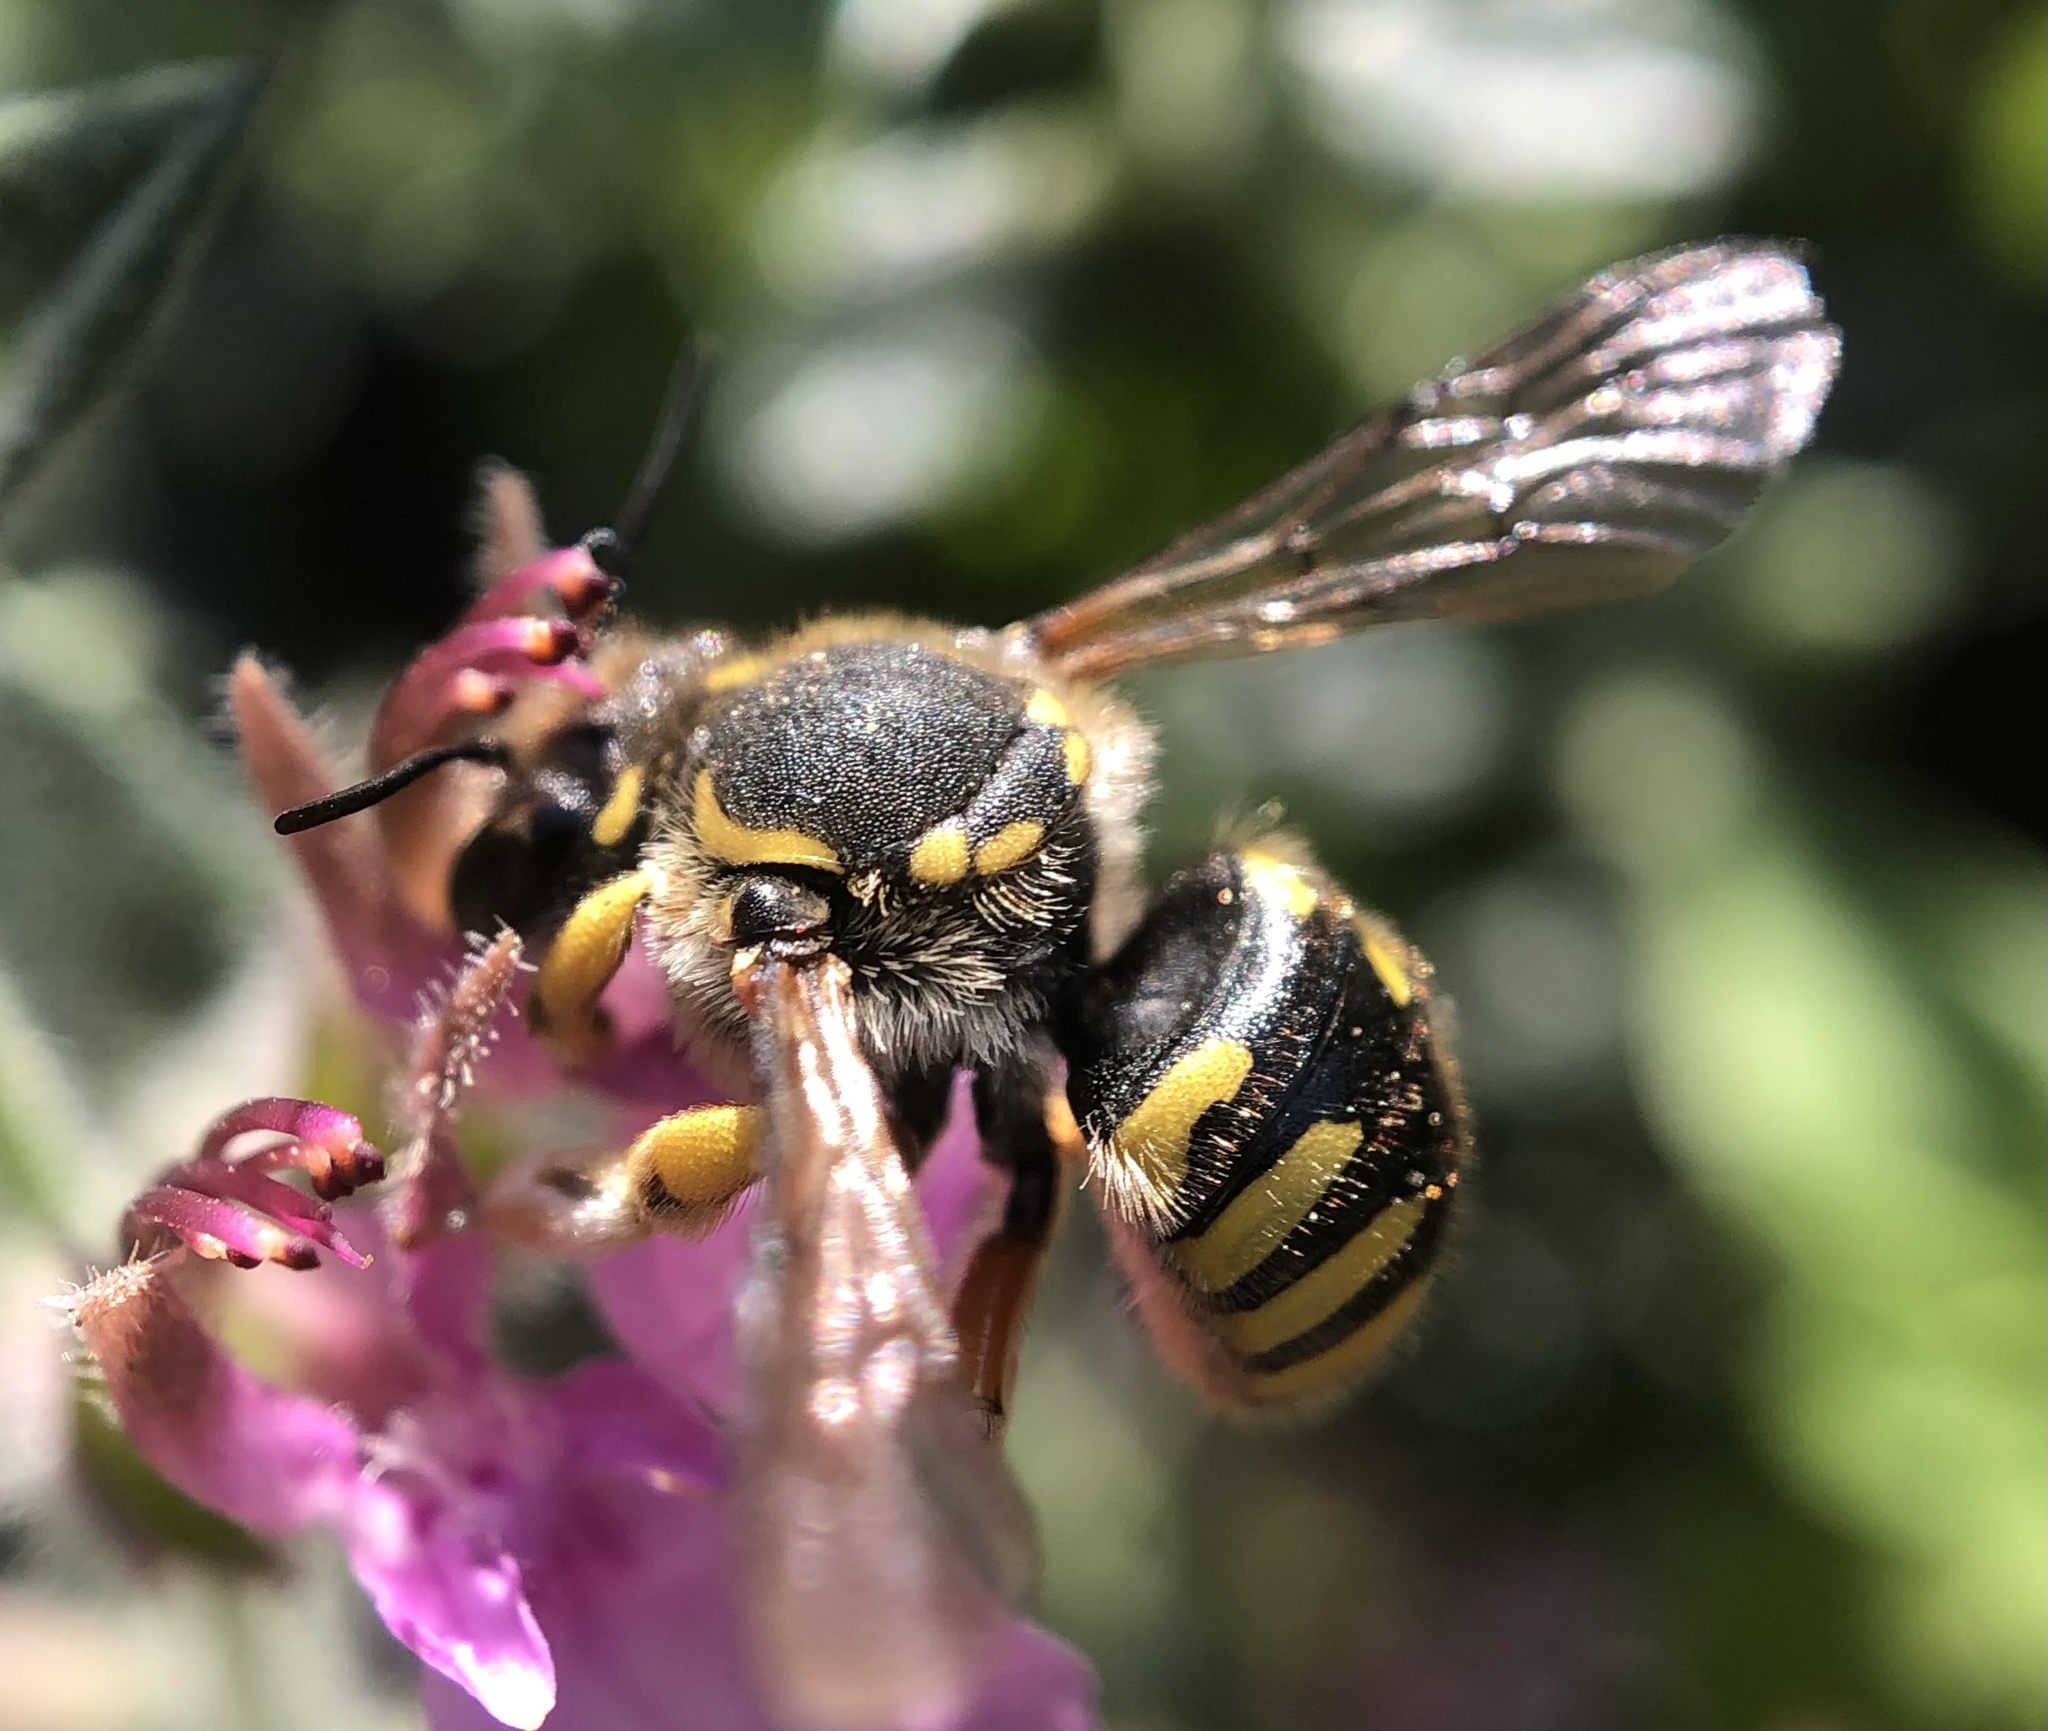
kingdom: Animalia
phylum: Arthropoda
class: Insecta
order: Hymenoptera
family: Megachilidae
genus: Anthidium
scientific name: Anthidium manicatum
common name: Wool carder bee
